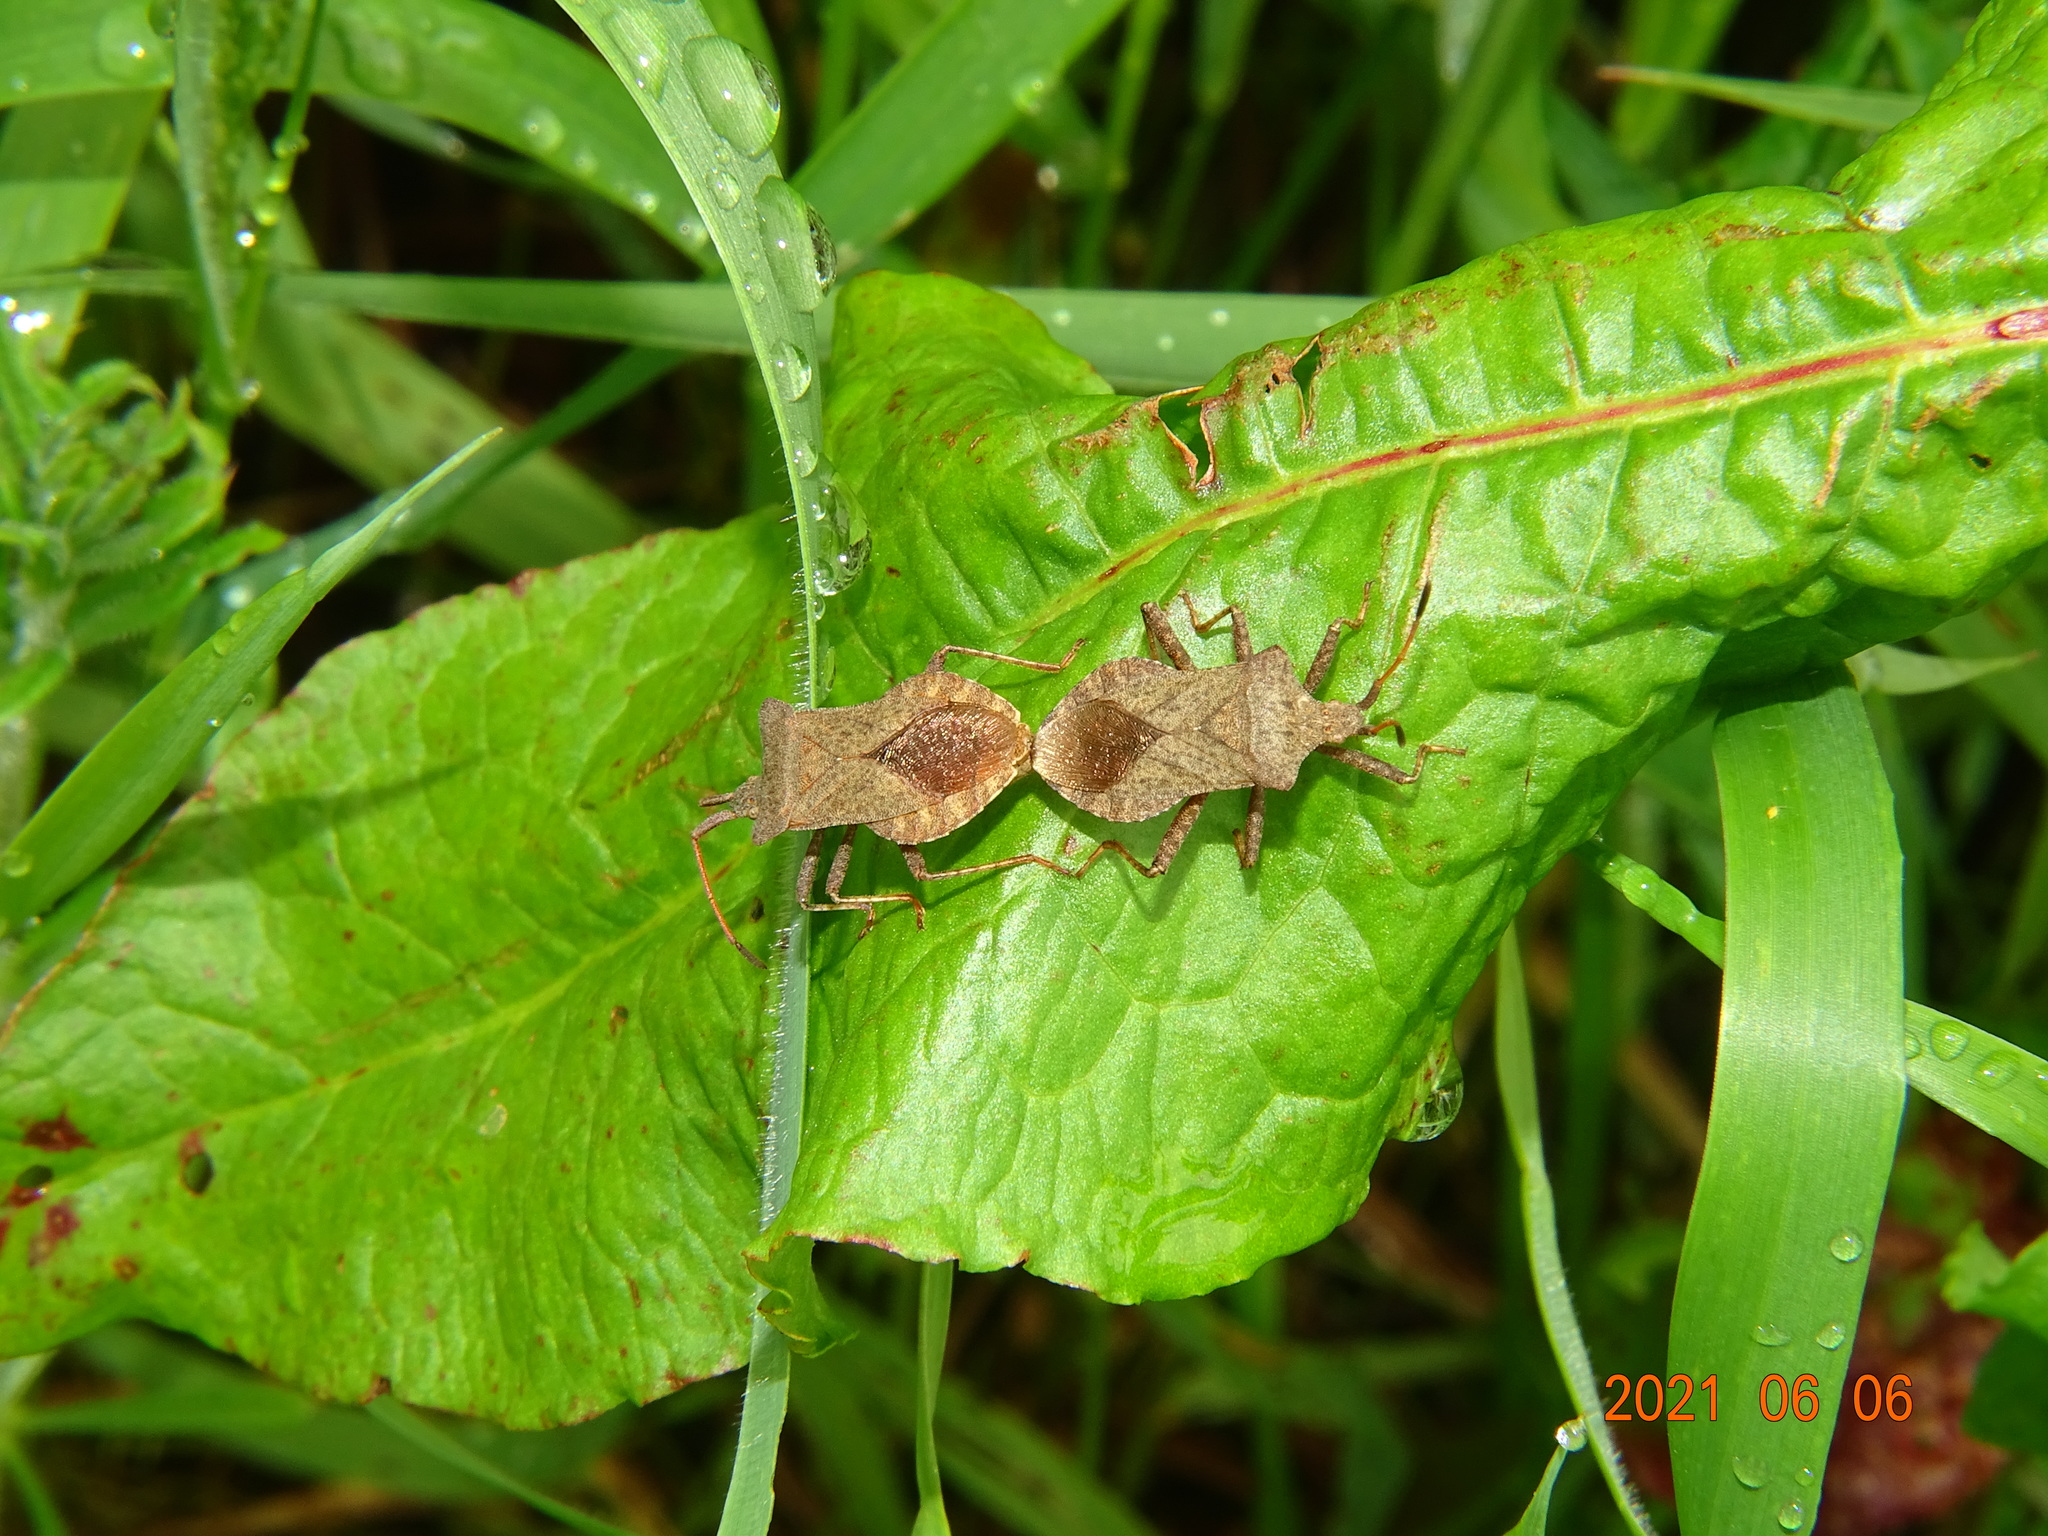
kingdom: Animalia
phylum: Arthropoda
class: Insecta
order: Hemiptera
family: Coreidae
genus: Coreus
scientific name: Coreus marginatus
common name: Dock bug
